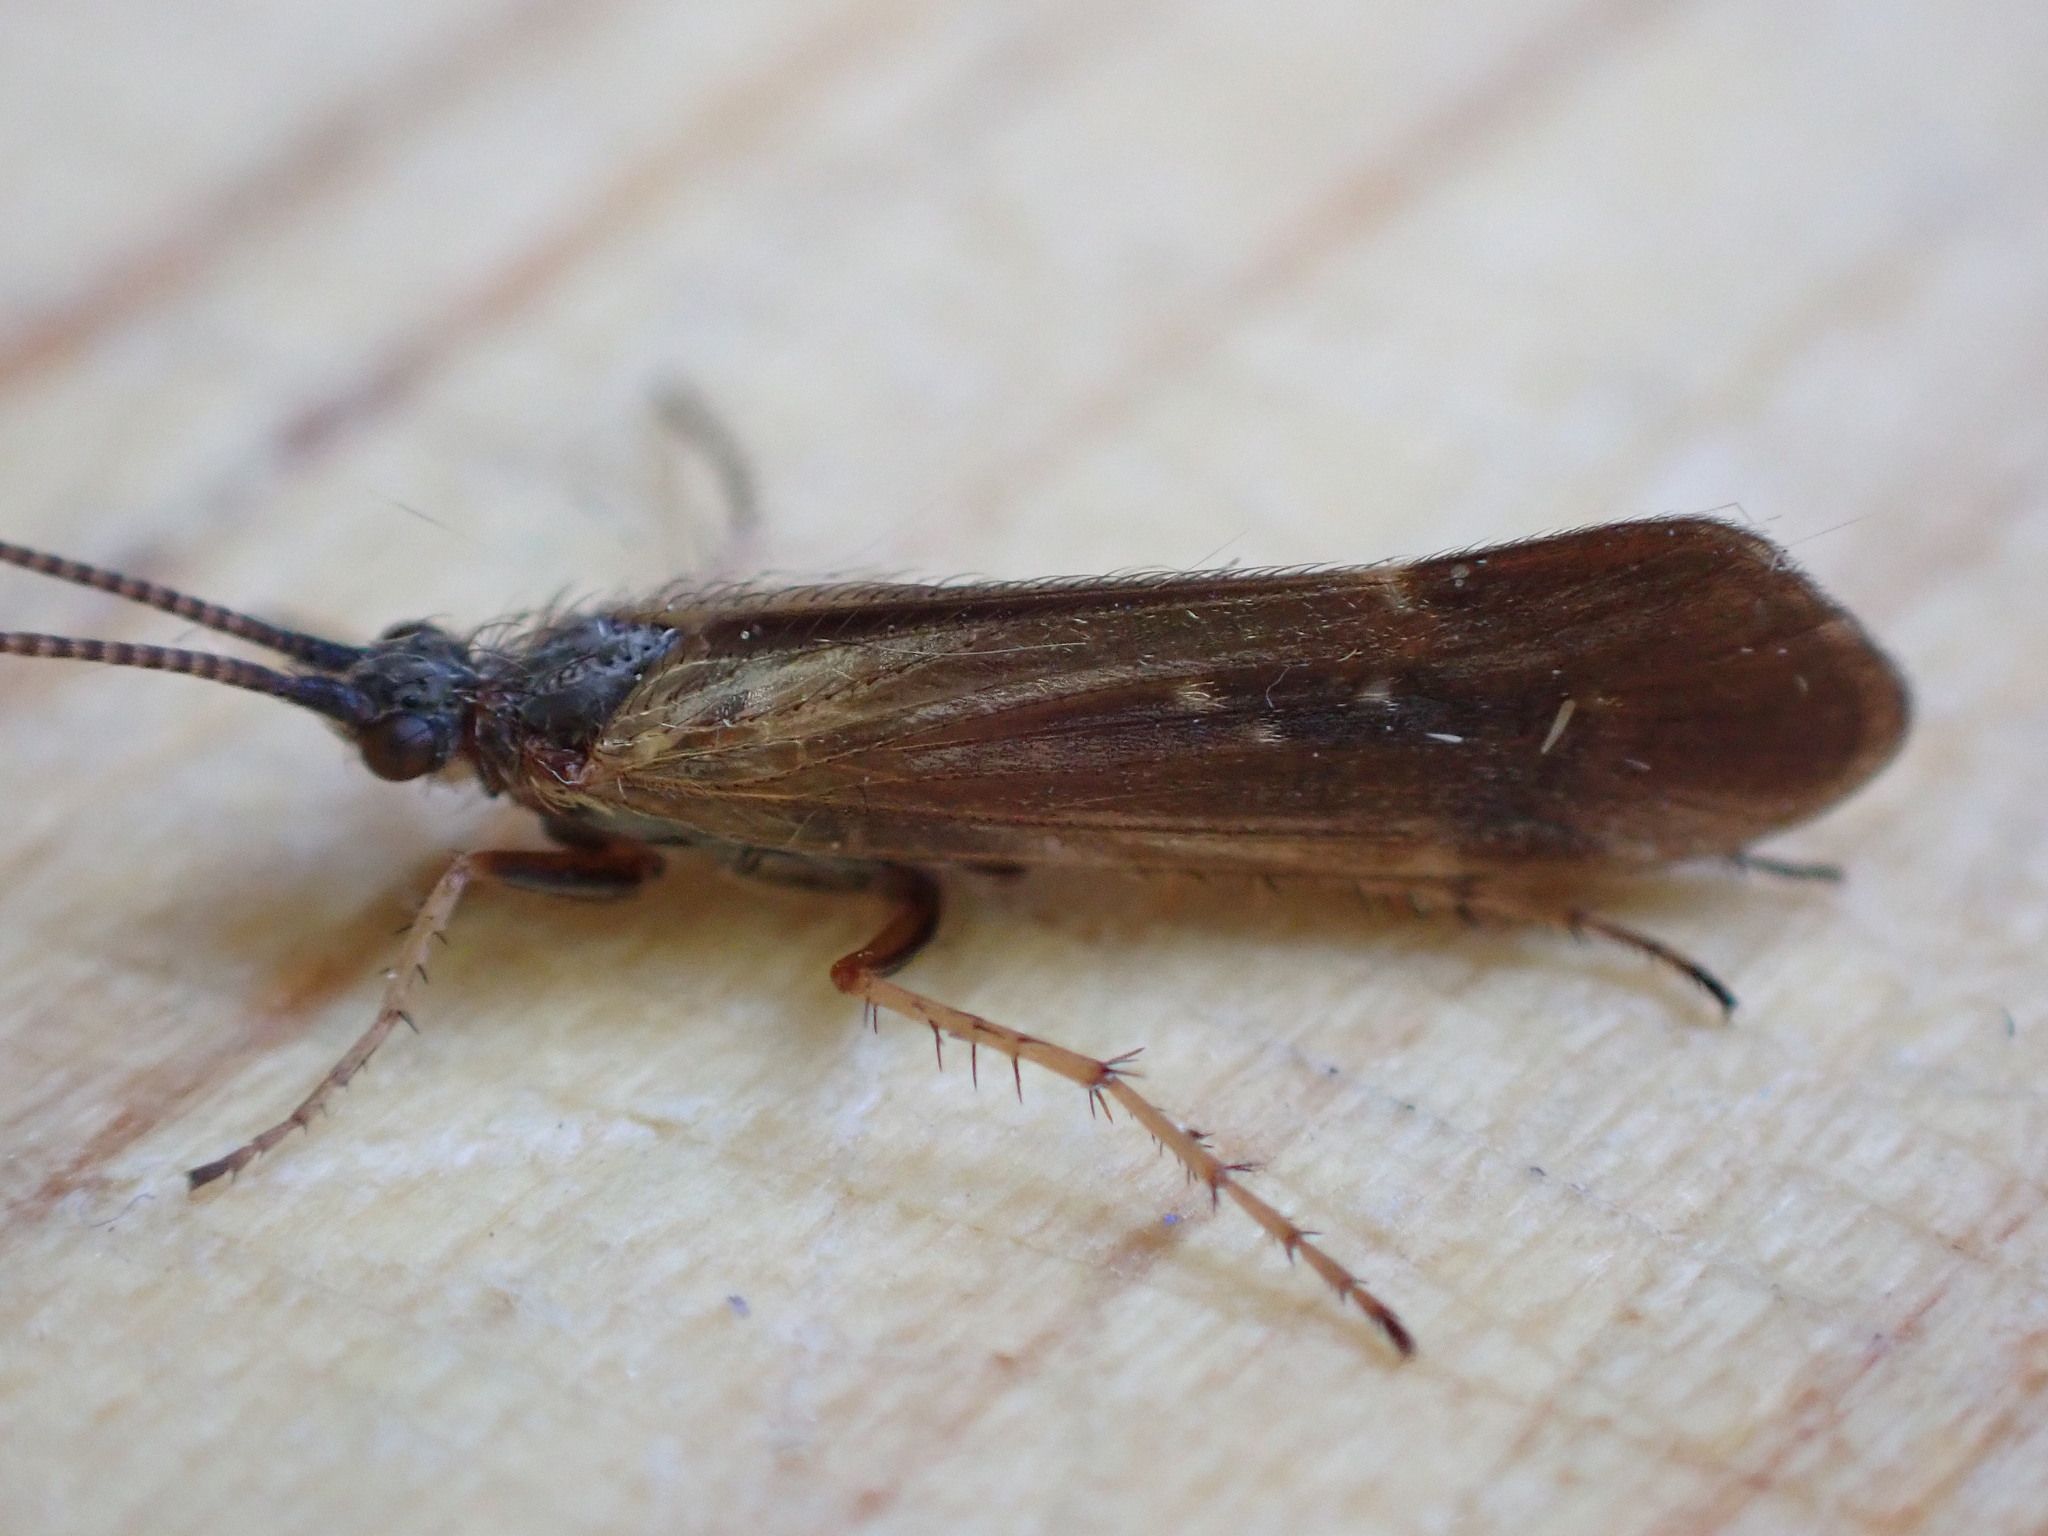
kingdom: Animalia
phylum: Arthropoda
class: Insecta
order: Trichoptera
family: Limnephilidae
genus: Limnephilus
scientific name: Limnephilus auricula
